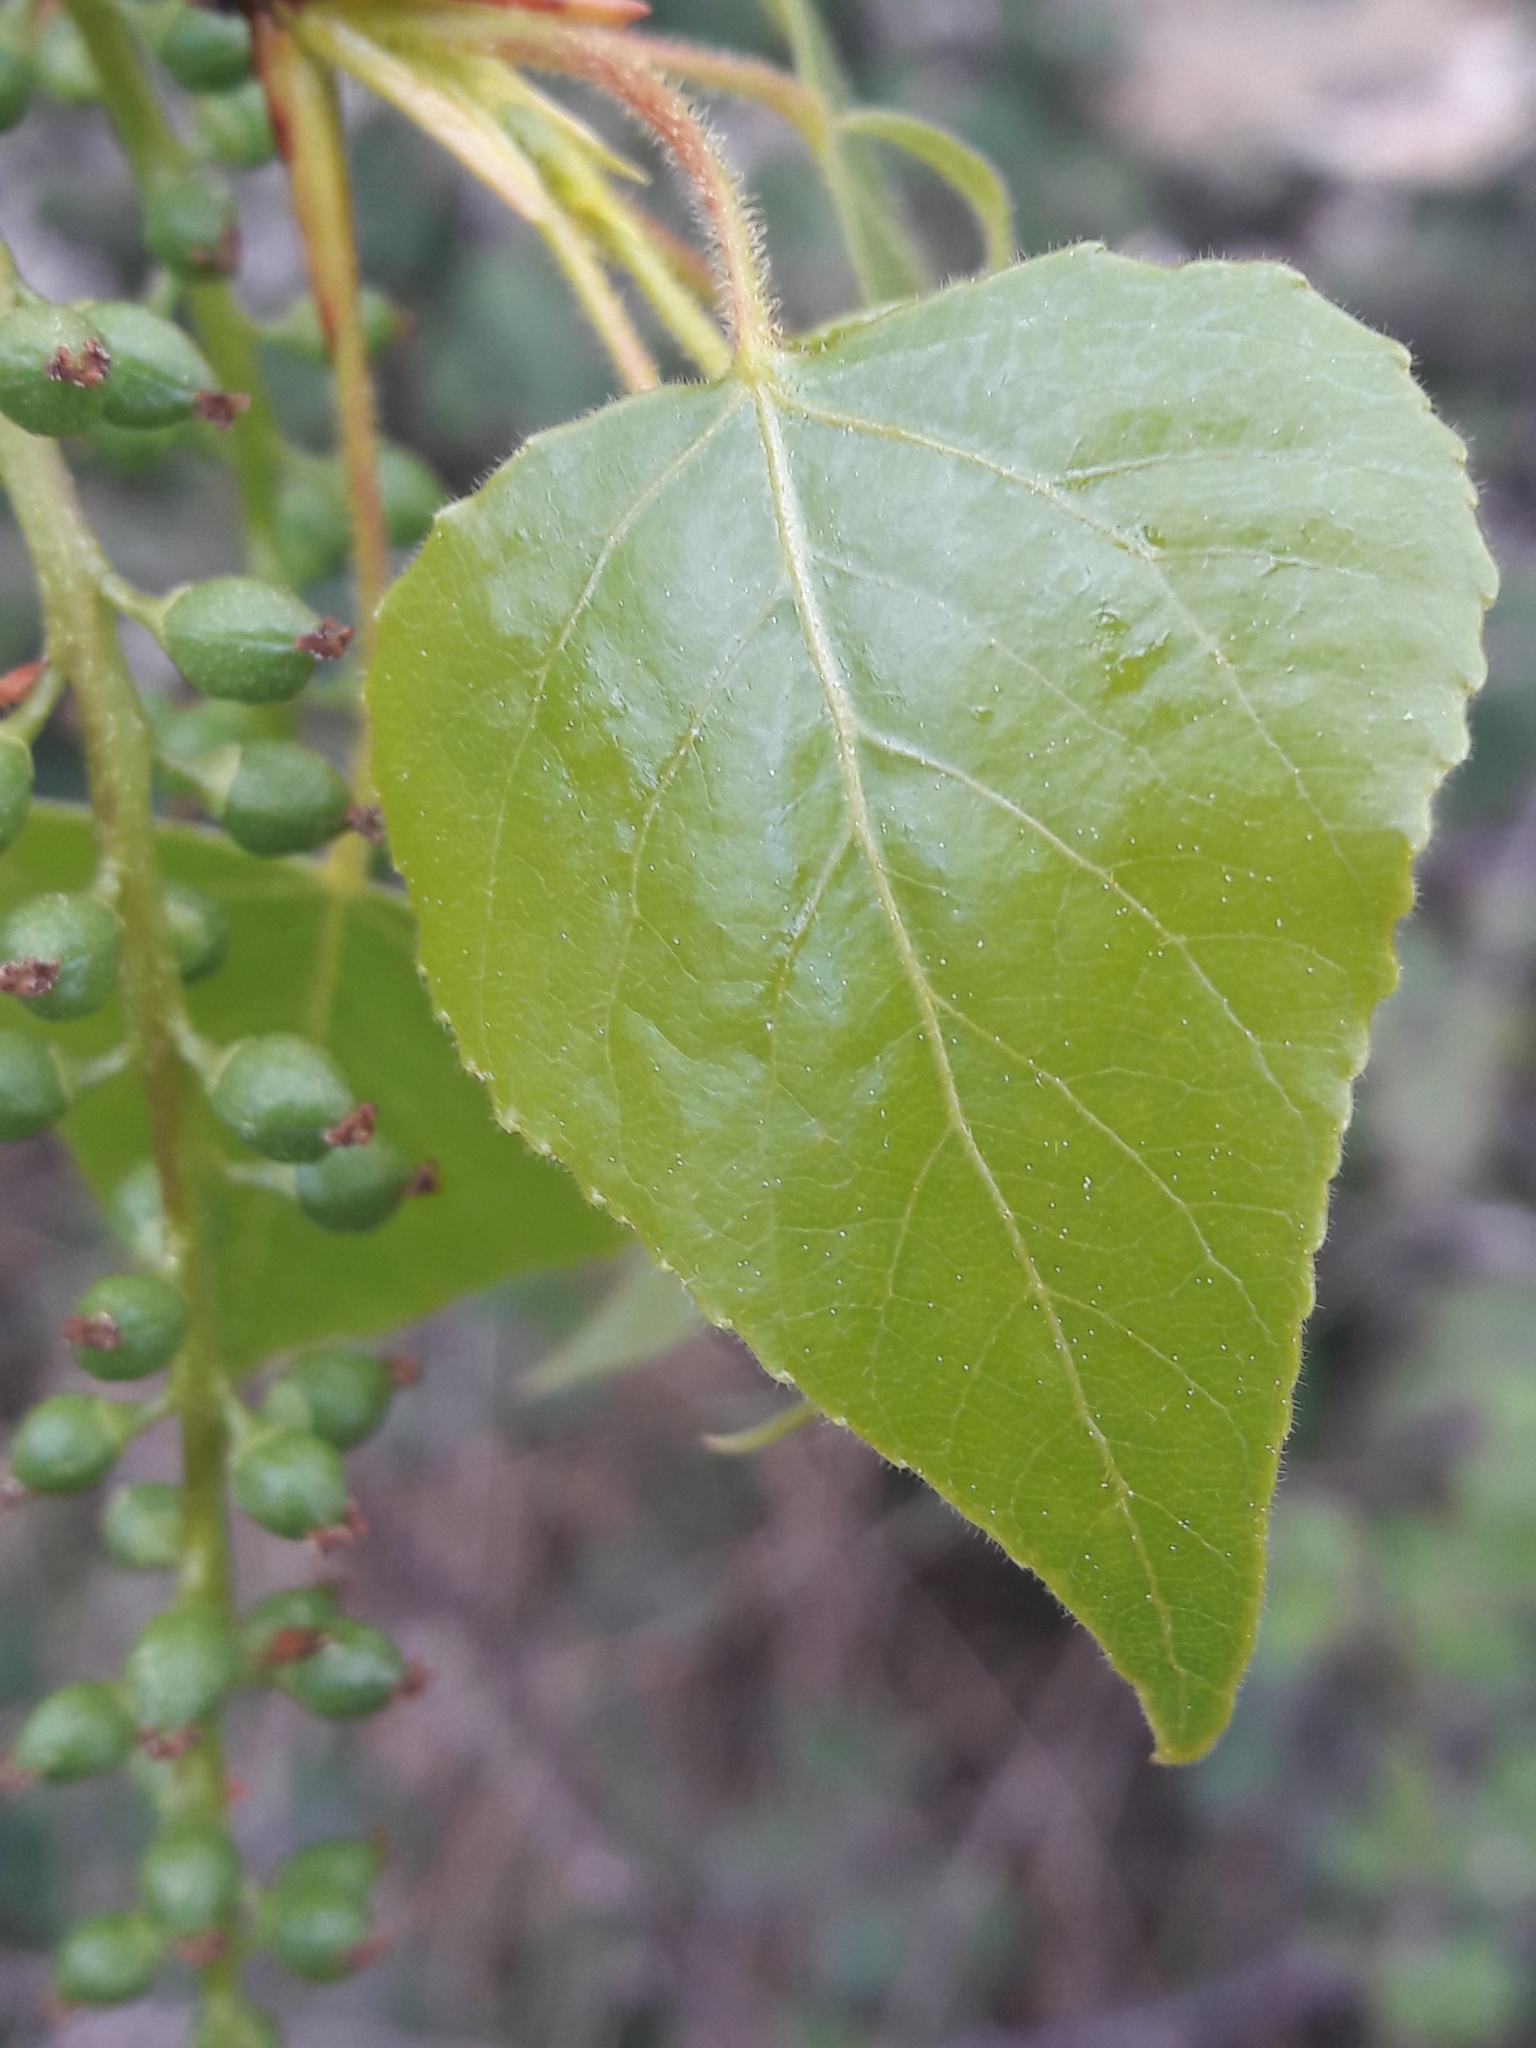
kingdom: Plantae
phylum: Tracheophyta
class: Magnoliopsida
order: Malpighiales
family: Salicaceae
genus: Populus
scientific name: Populus nigra
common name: Black poplar
